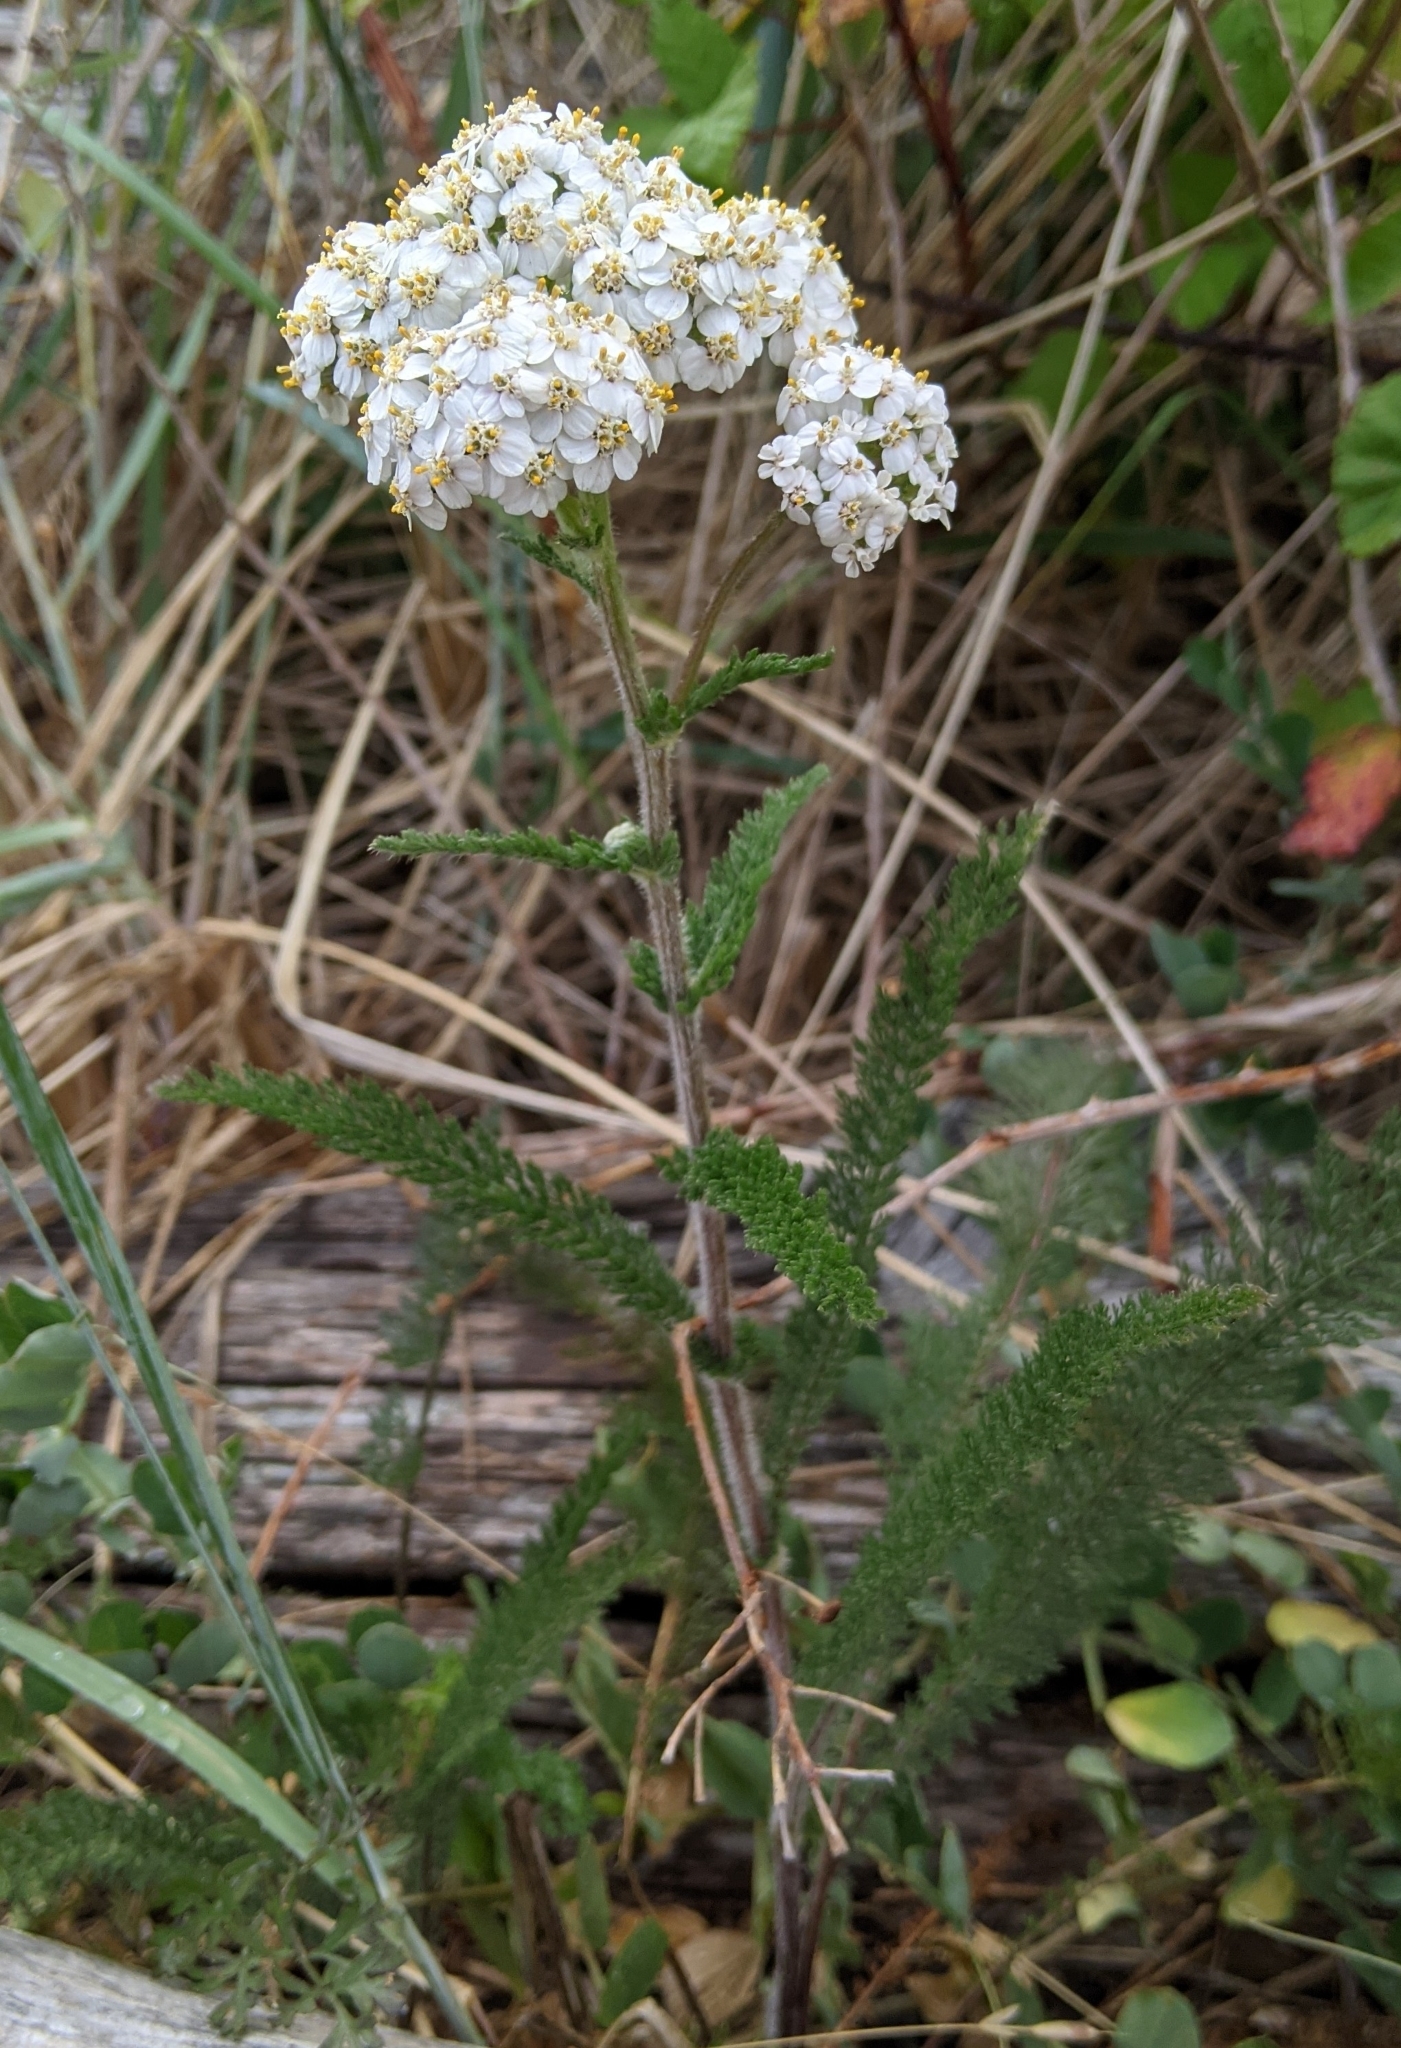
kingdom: Plantae
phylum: Tracheophyta
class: Magnoliopsida
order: Asterales
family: Asteraceae
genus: Achillea
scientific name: Achillea millefolium
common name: Yarrow
